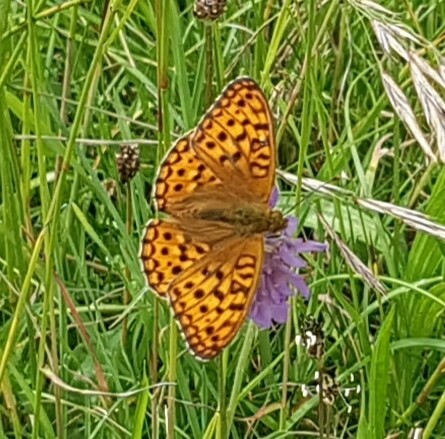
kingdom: Animalia
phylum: Arthropoda
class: Insecta
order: Lepidoptera
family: Nymphalidae
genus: Fabriciana
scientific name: Fabriciana adippe
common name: High brown fritillary
